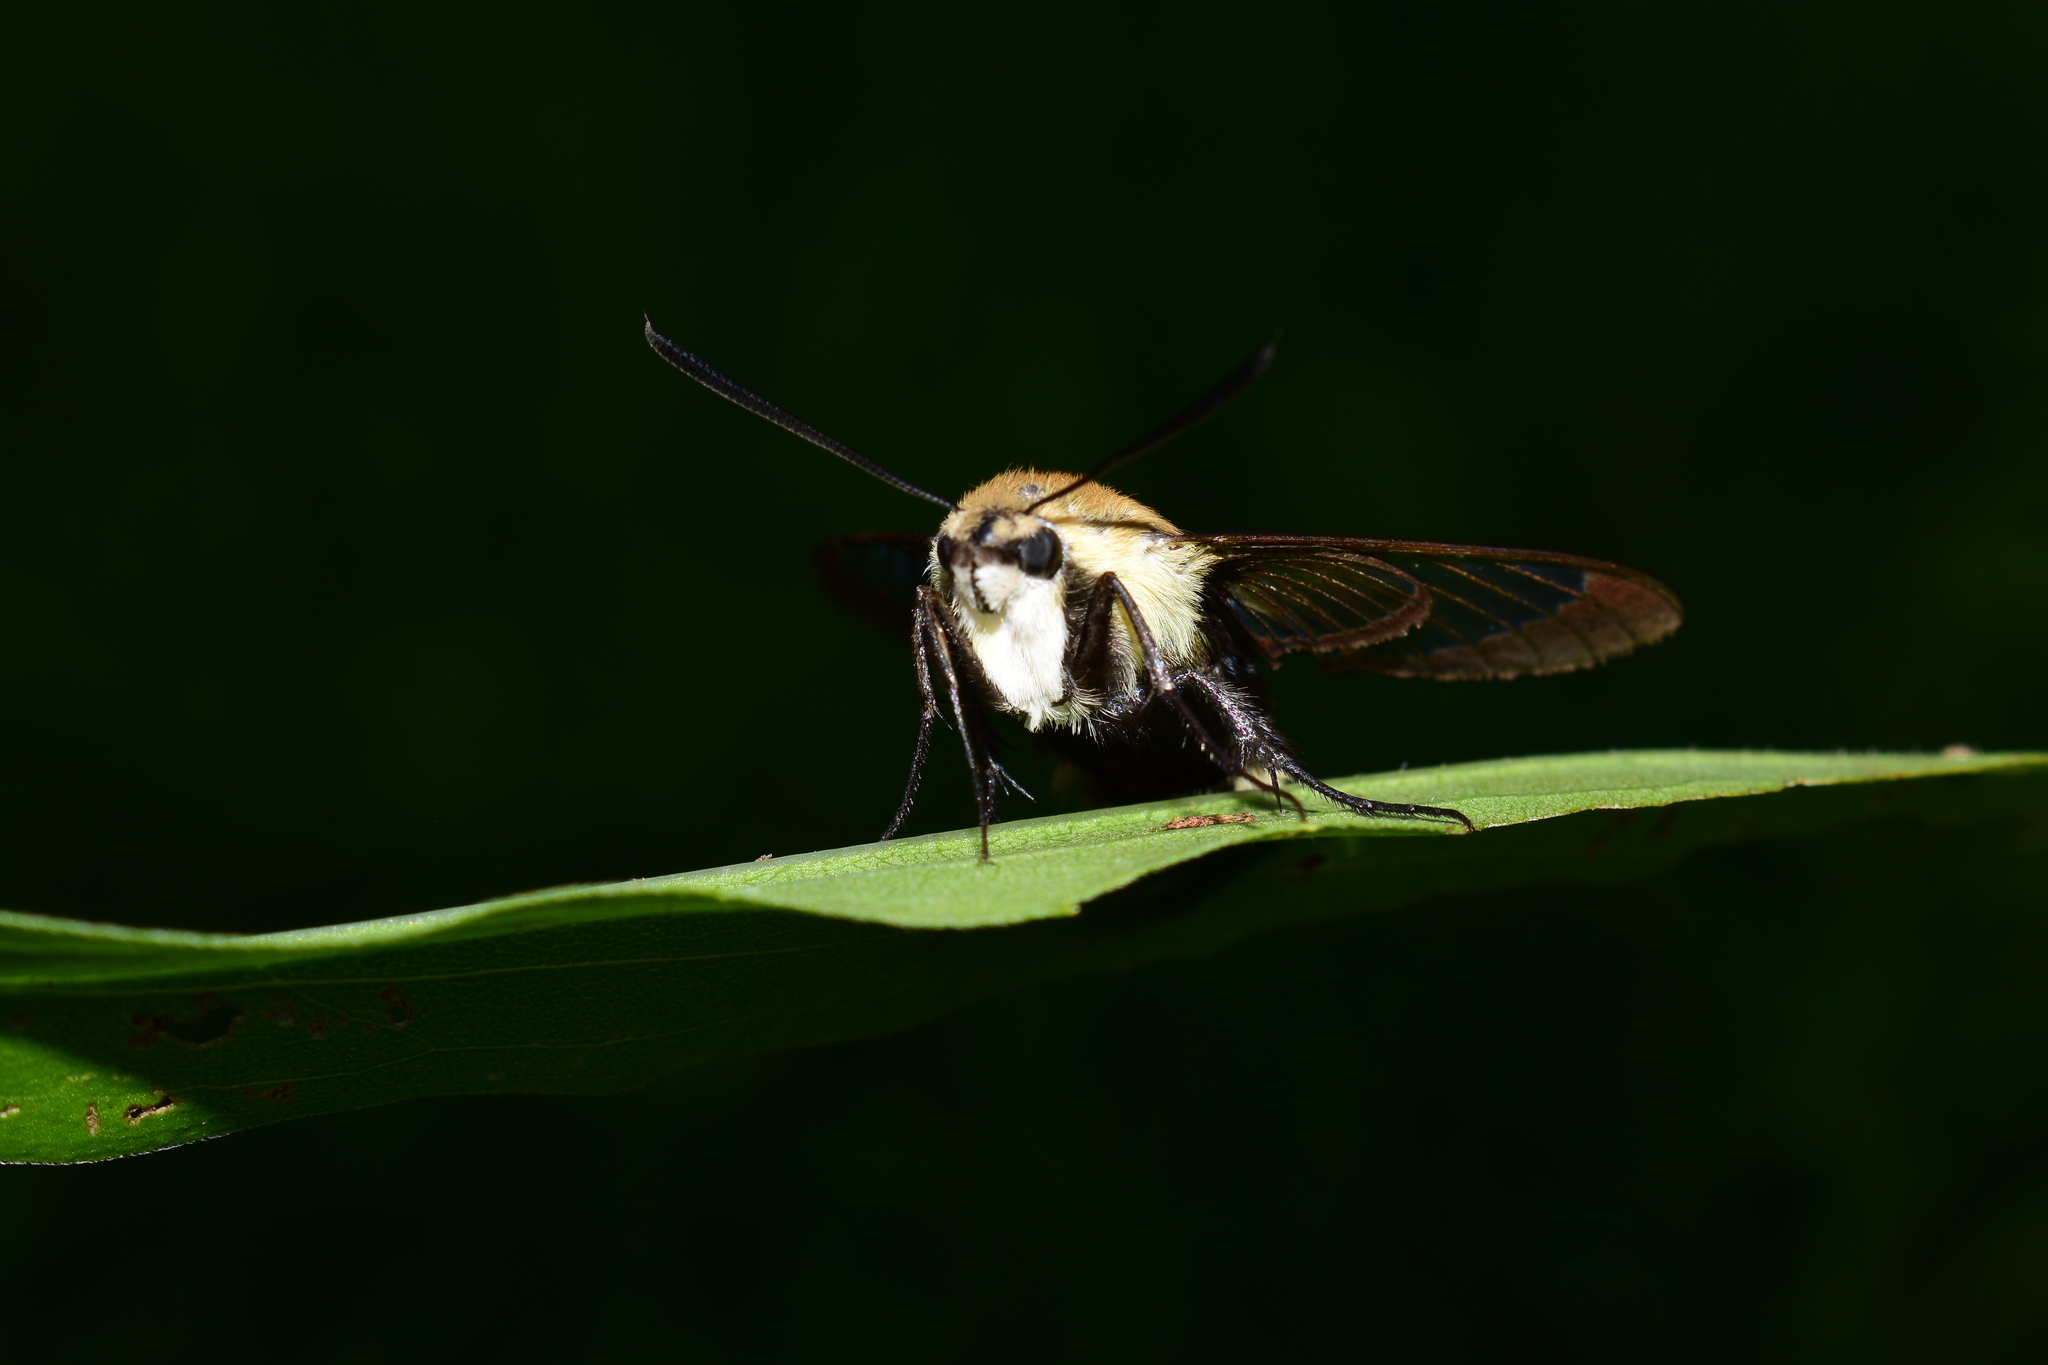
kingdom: Animalia
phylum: Arthropoda
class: Insecta
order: Lepidoptera
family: Sphingidae
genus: Hemaris
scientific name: Hemaris diffinis
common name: Bumblebee moth
